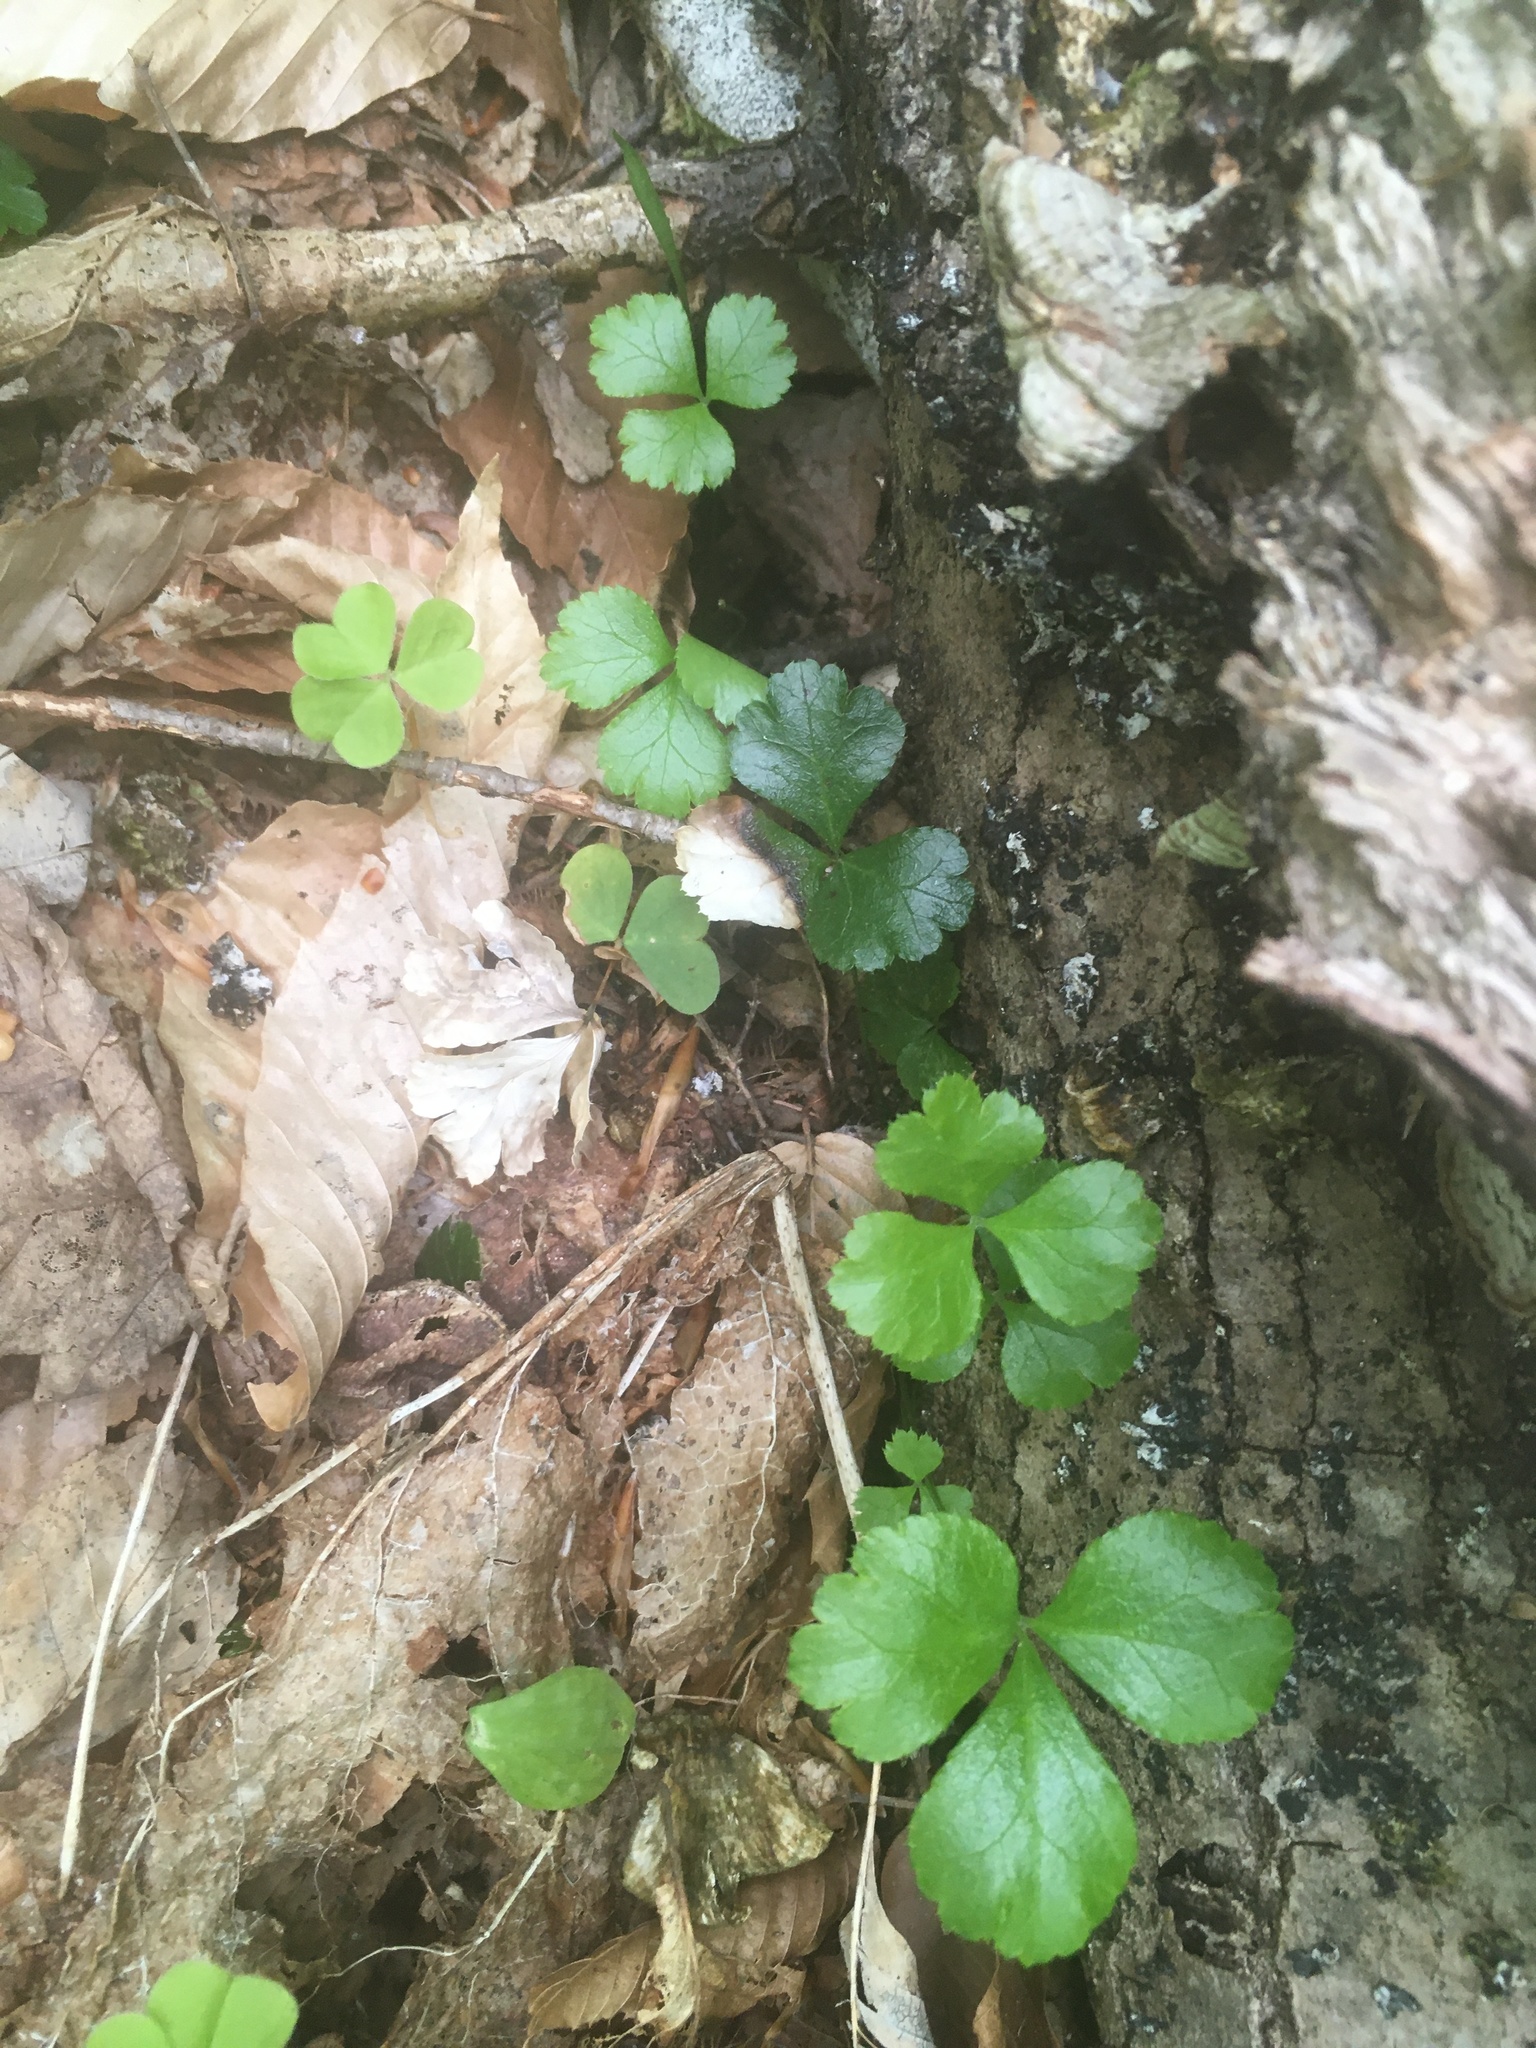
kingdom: Plantae
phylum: Tracheophyta
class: Magnoliopsida
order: Ranunculales
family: Ranunculaceae
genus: Coptis
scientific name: Coptis trifolia
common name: Canker-root
